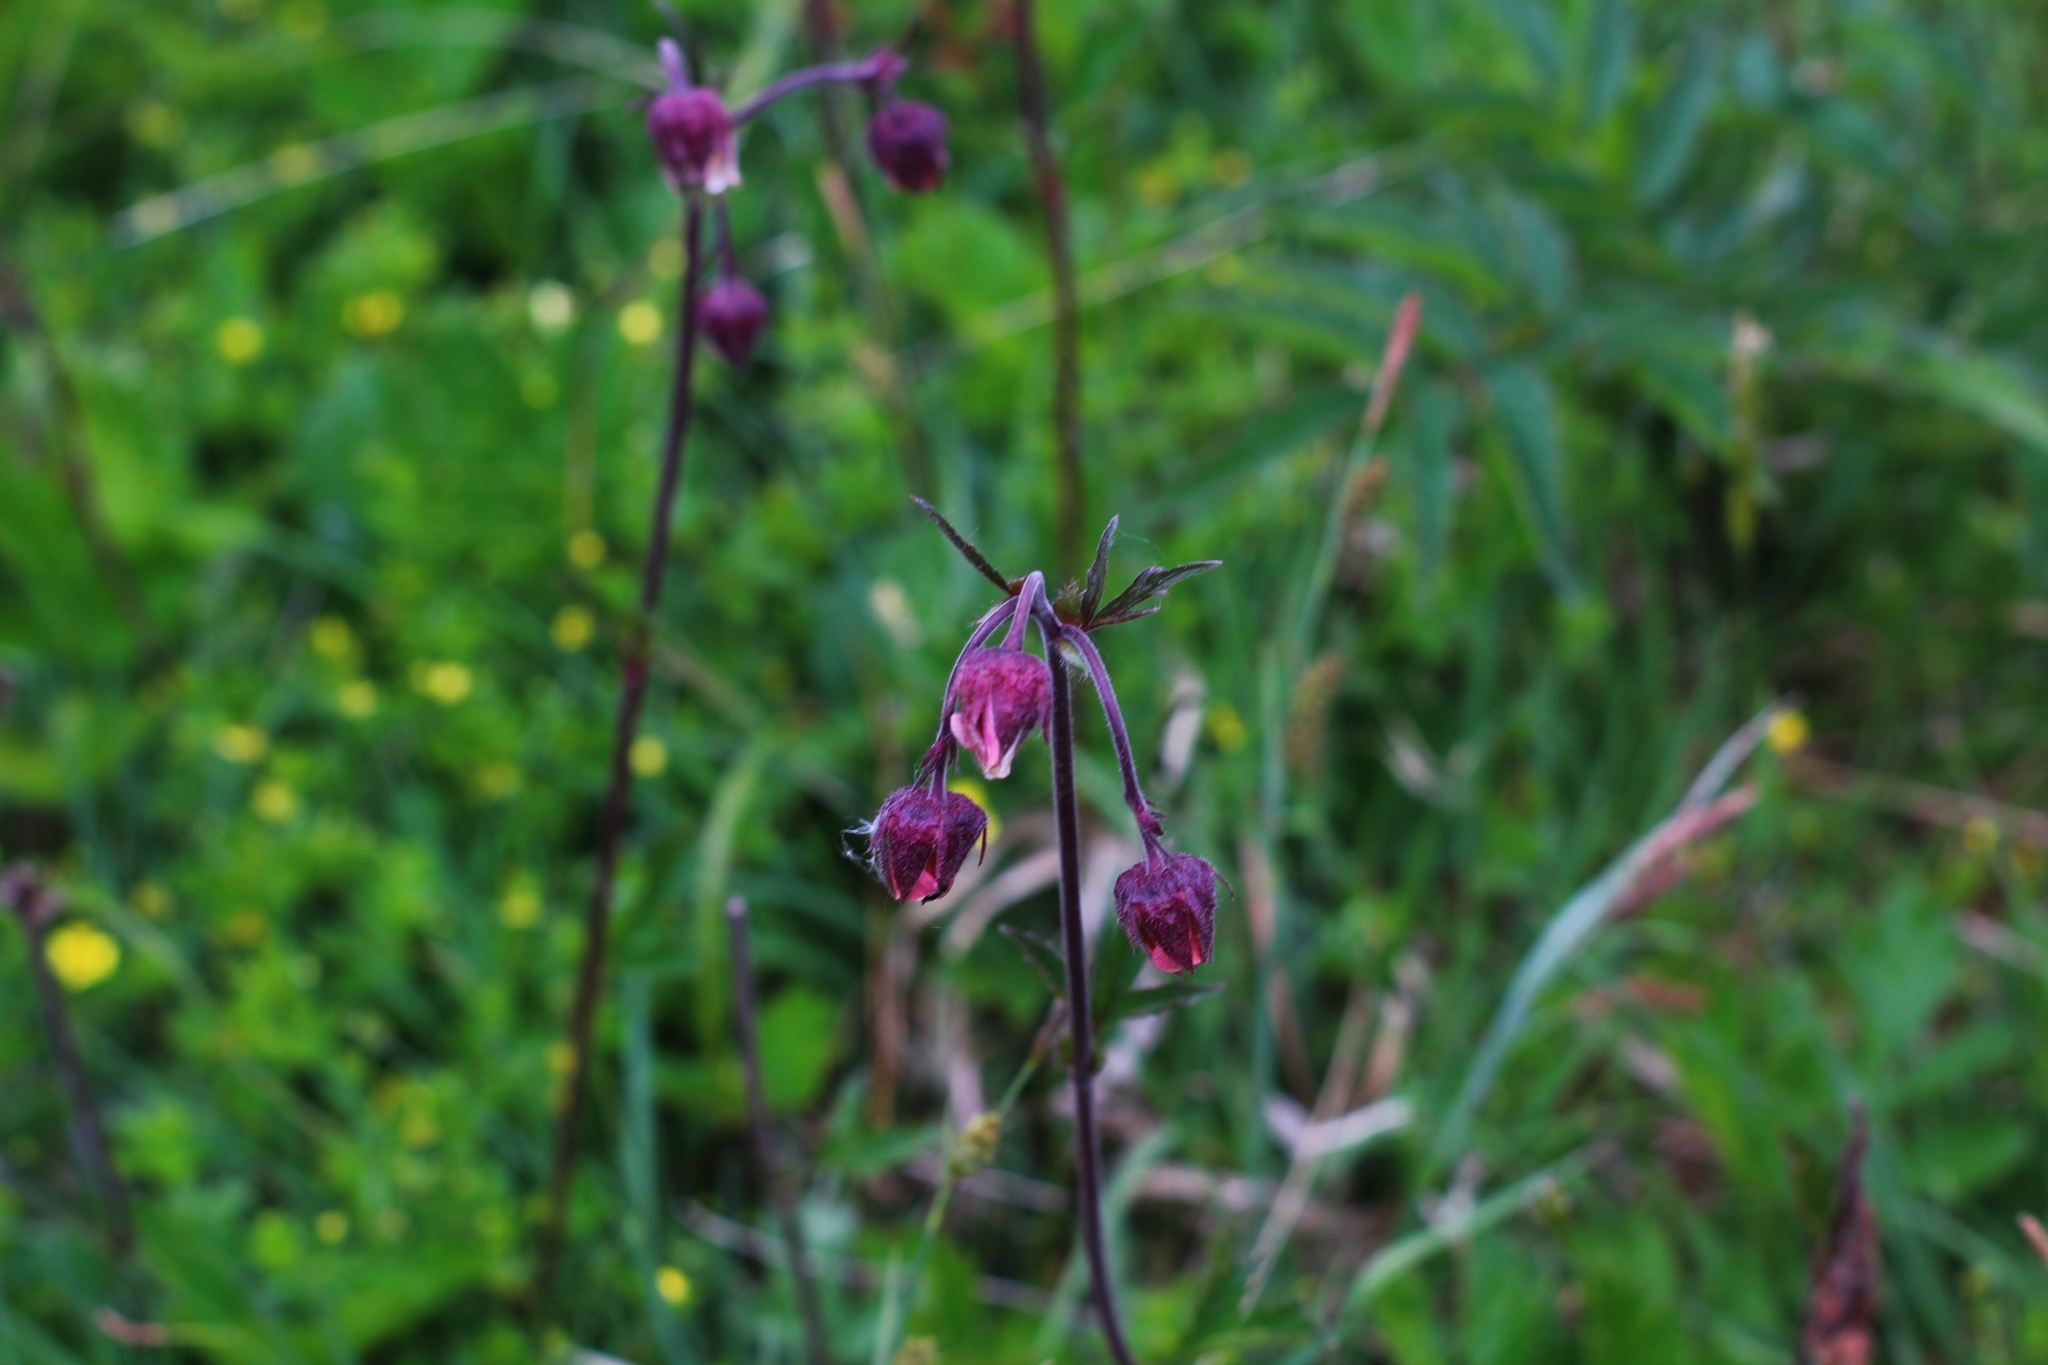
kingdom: Plantae
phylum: Tracheophyta
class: Magnoliopsida
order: Rosales
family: Rosaceae
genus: Geum
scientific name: Geum rivale
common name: Water avens
